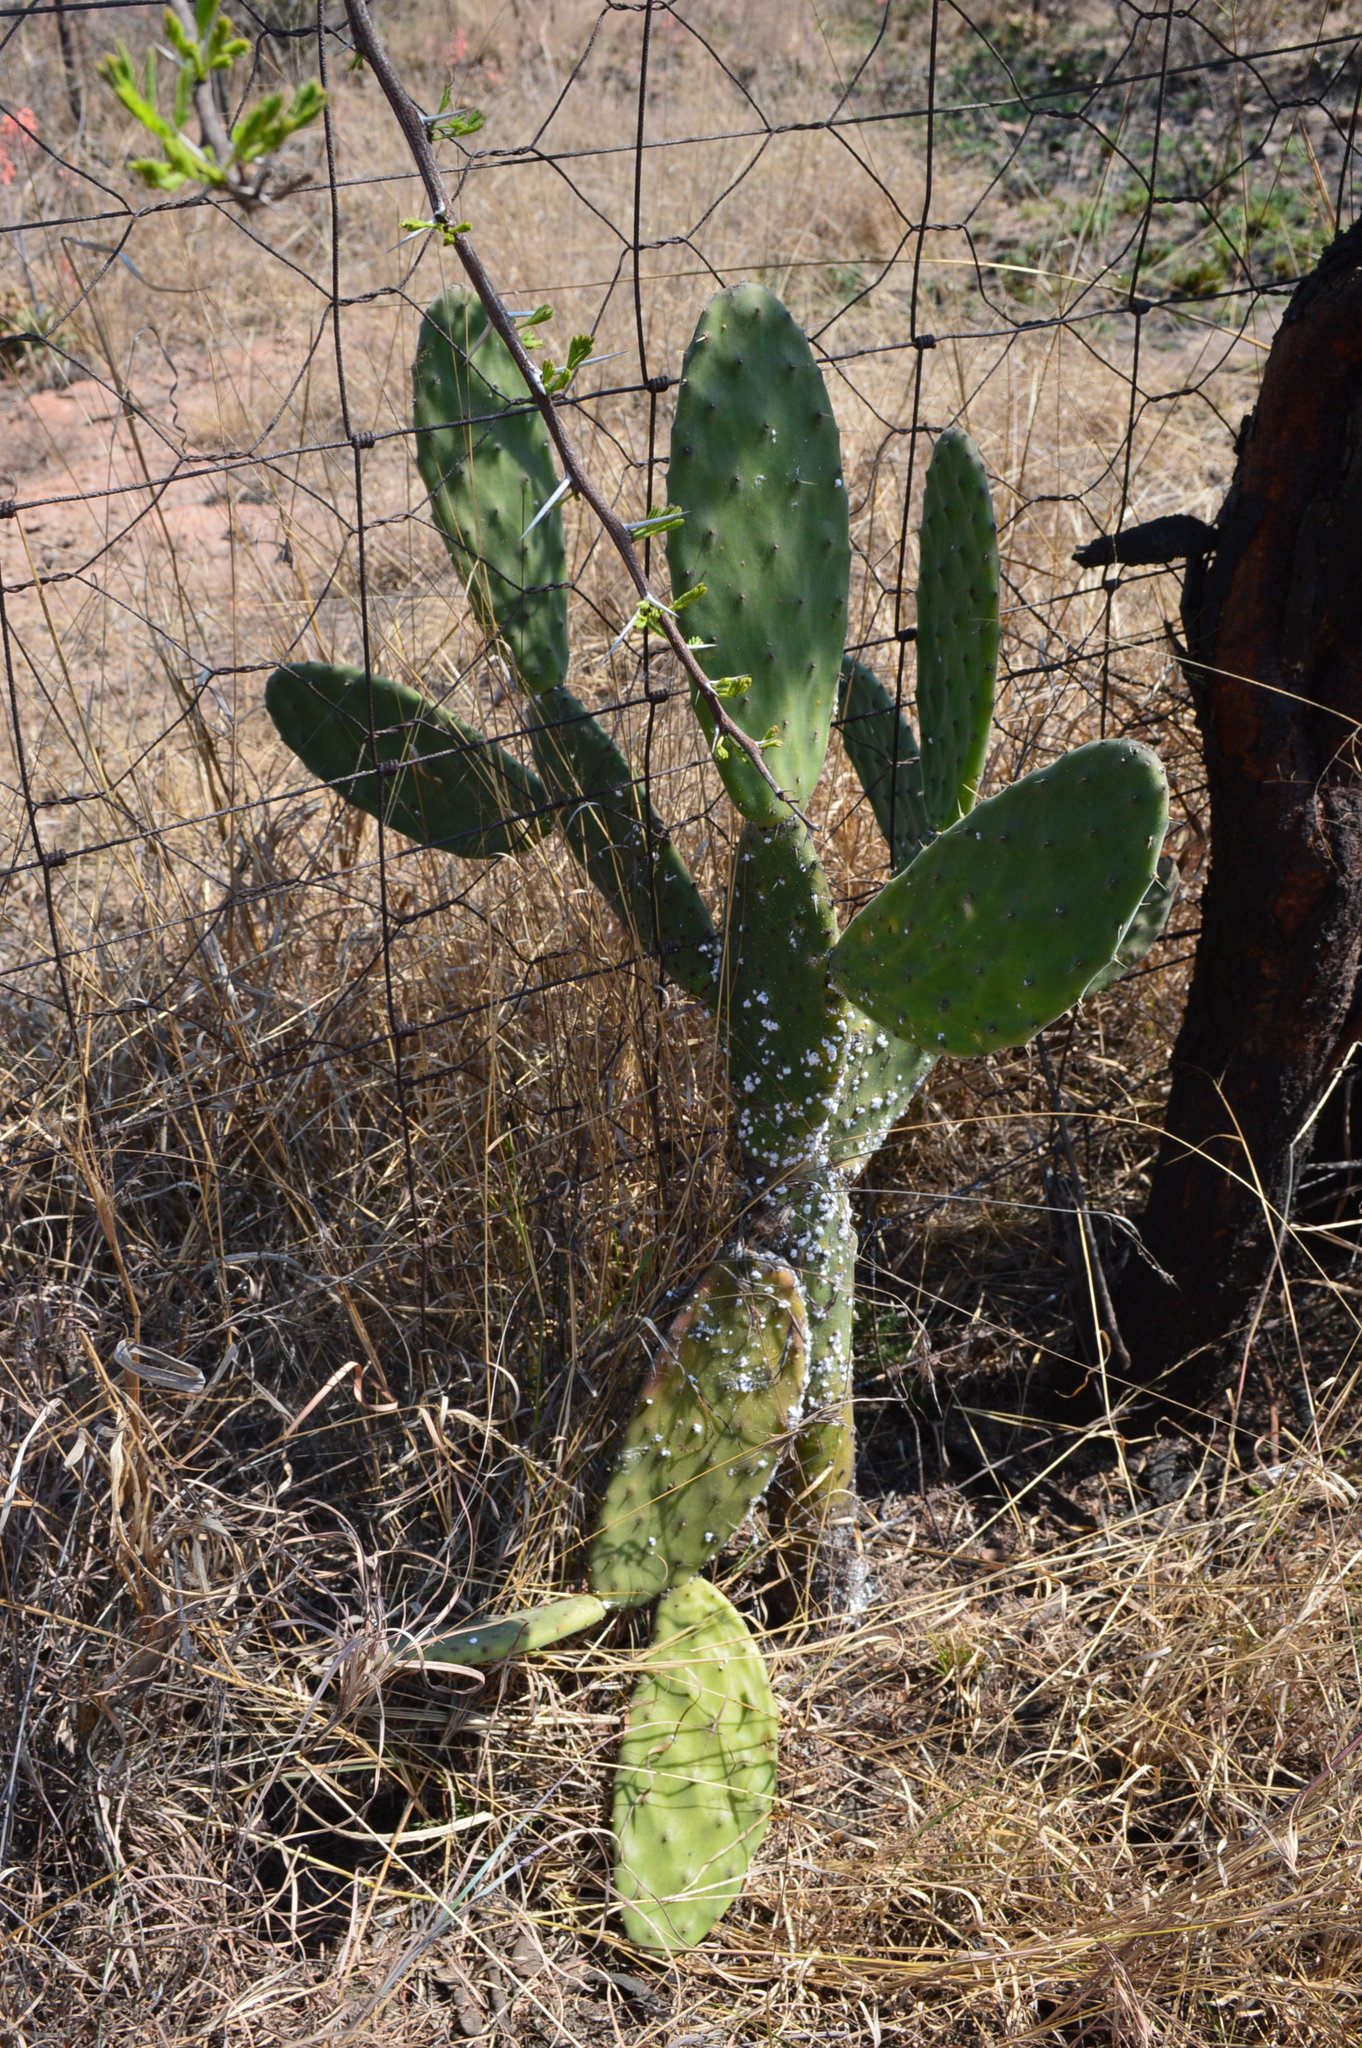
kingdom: Plantae
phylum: Tracheophyta
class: Magnoliopsida
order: Caryophyllales
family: Cactaceae
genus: Opuntia
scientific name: Opuntia tomentosa
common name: Woollyjoint pricklypear
